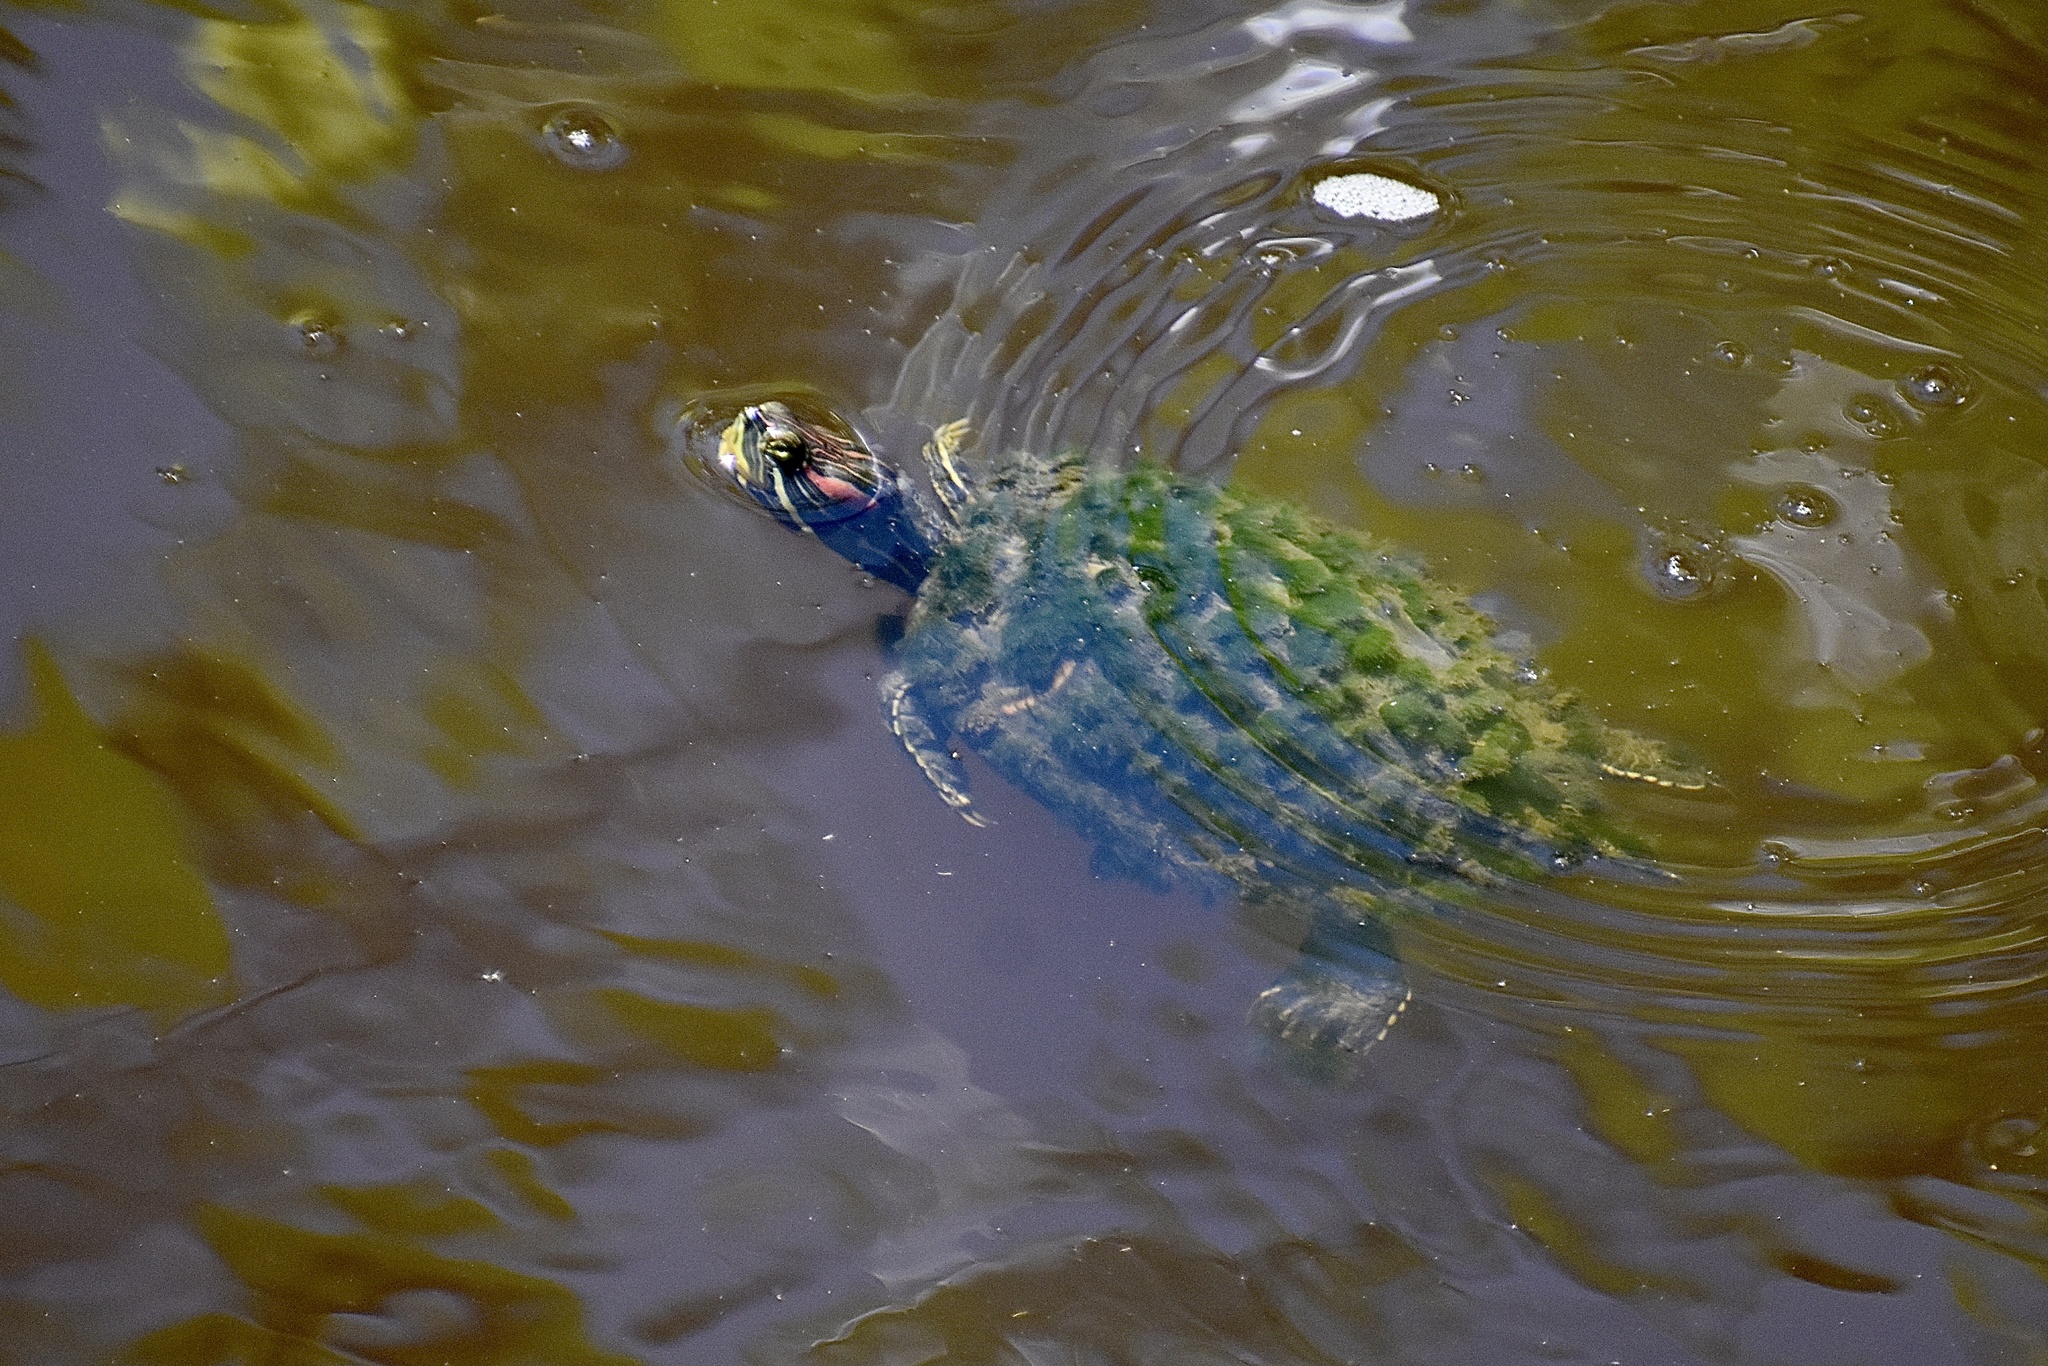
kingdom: Animalia
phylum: Chordata
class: Testudines
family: Emydidae
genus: Trachemys
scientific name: Trachemys scripta
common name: Slider
